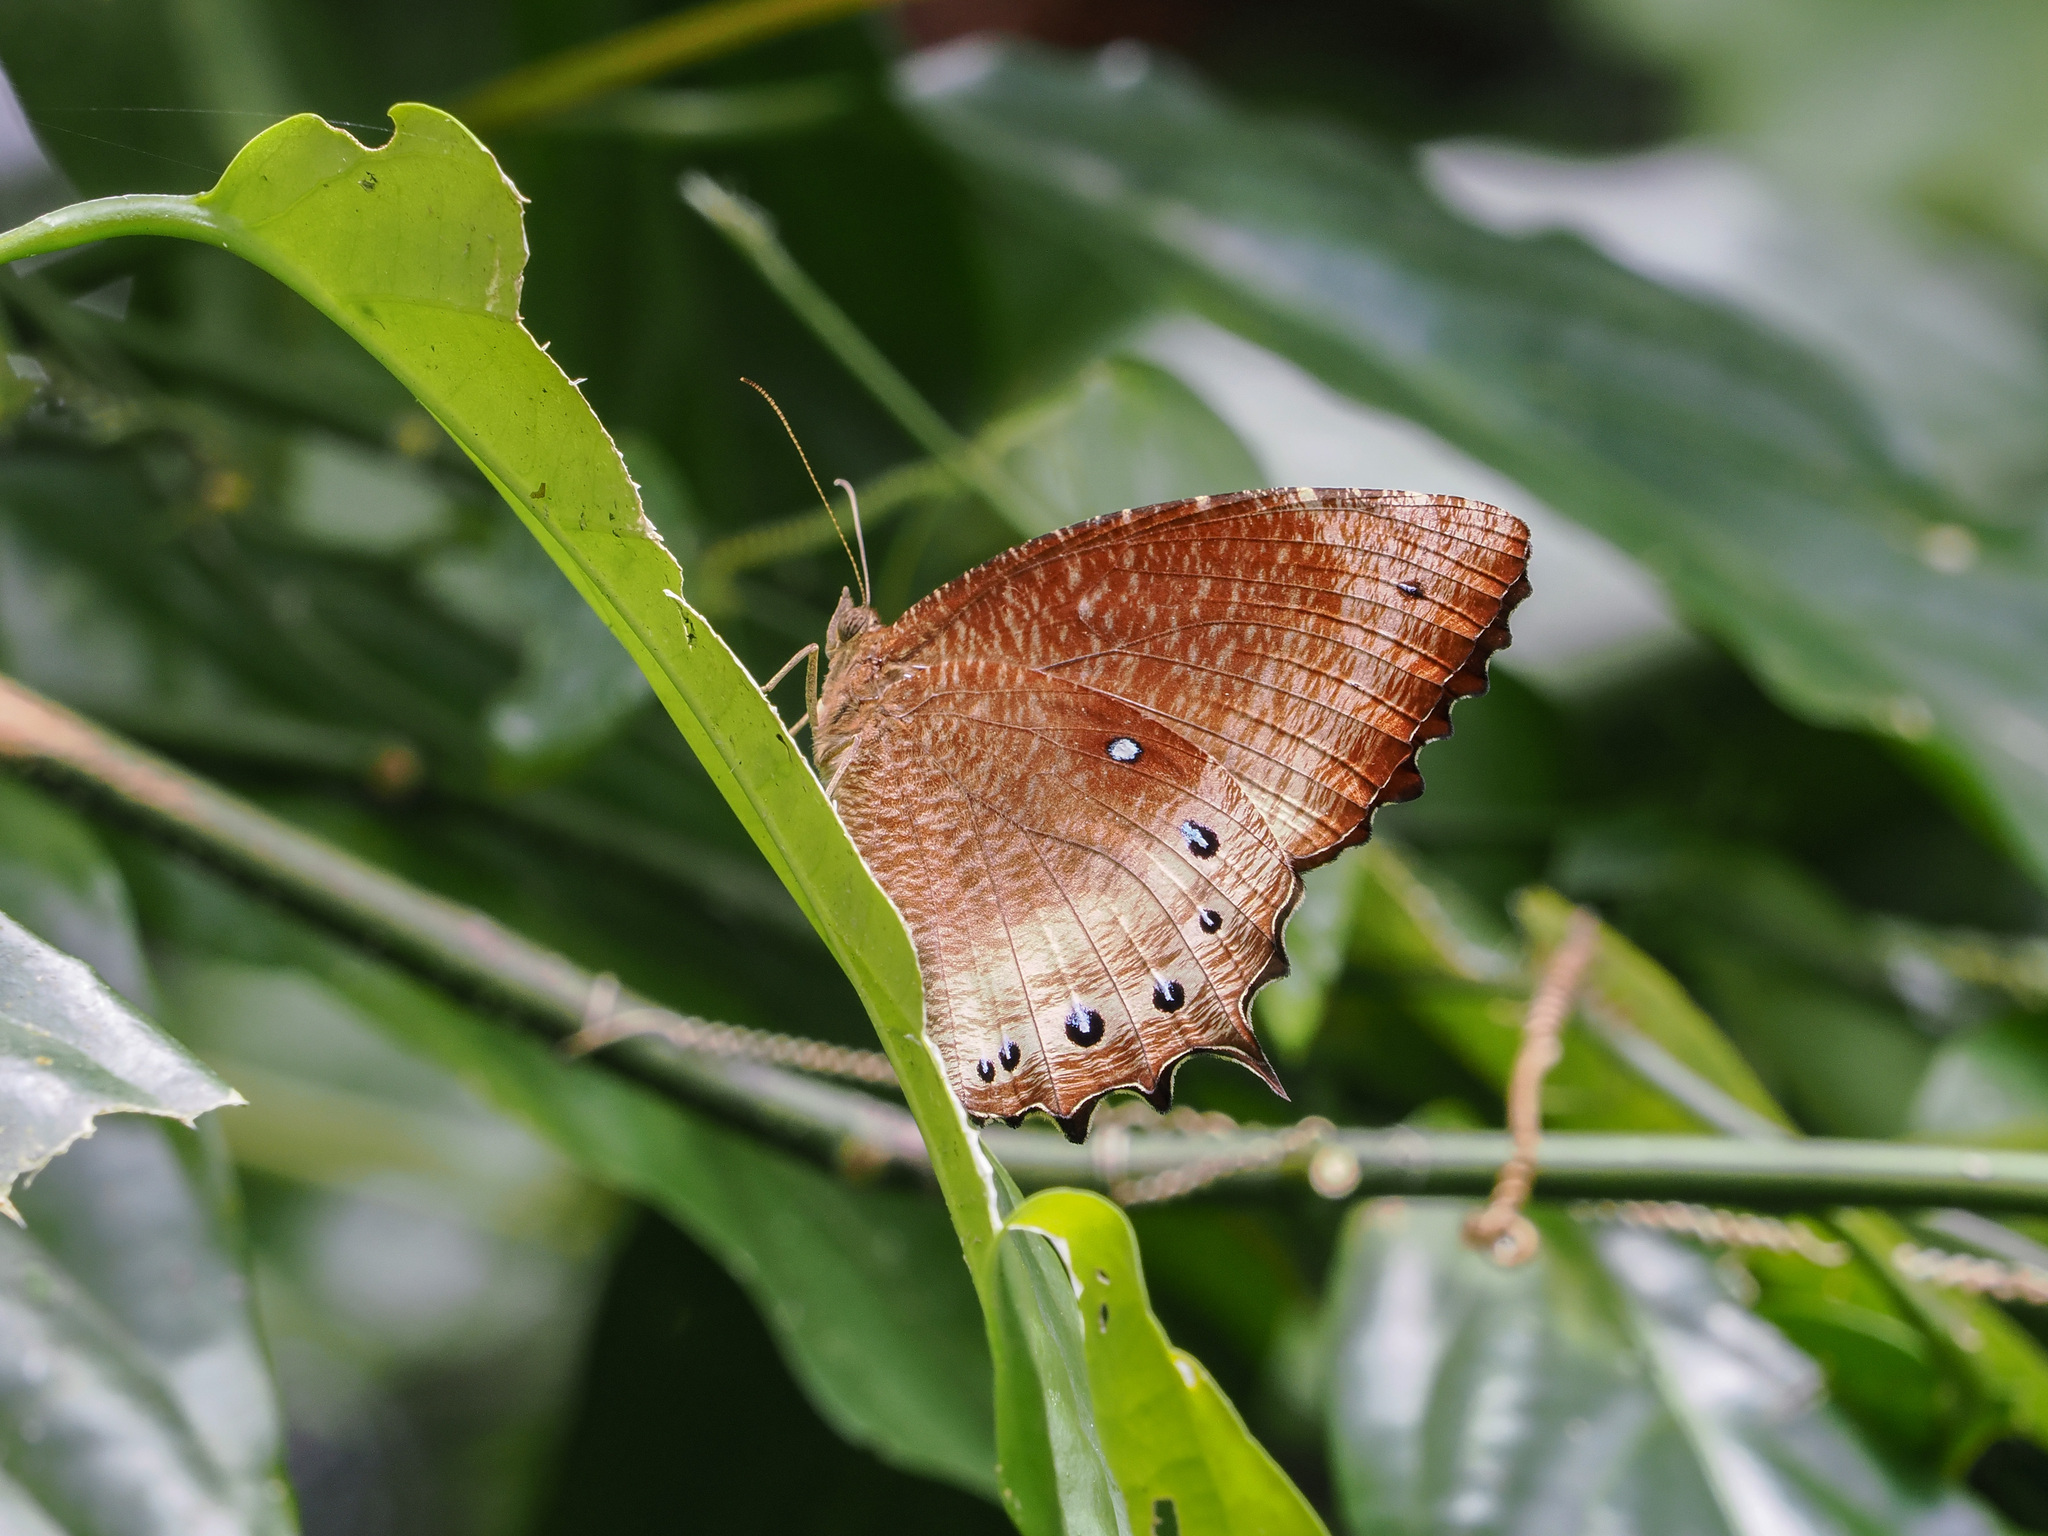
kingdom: Animalia
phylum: Arthropoda
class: Insecta
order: Lepidoptera
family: Nymphalidae
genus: Elymnias
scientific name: Elymnias panthera
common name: Tawny palmfly
